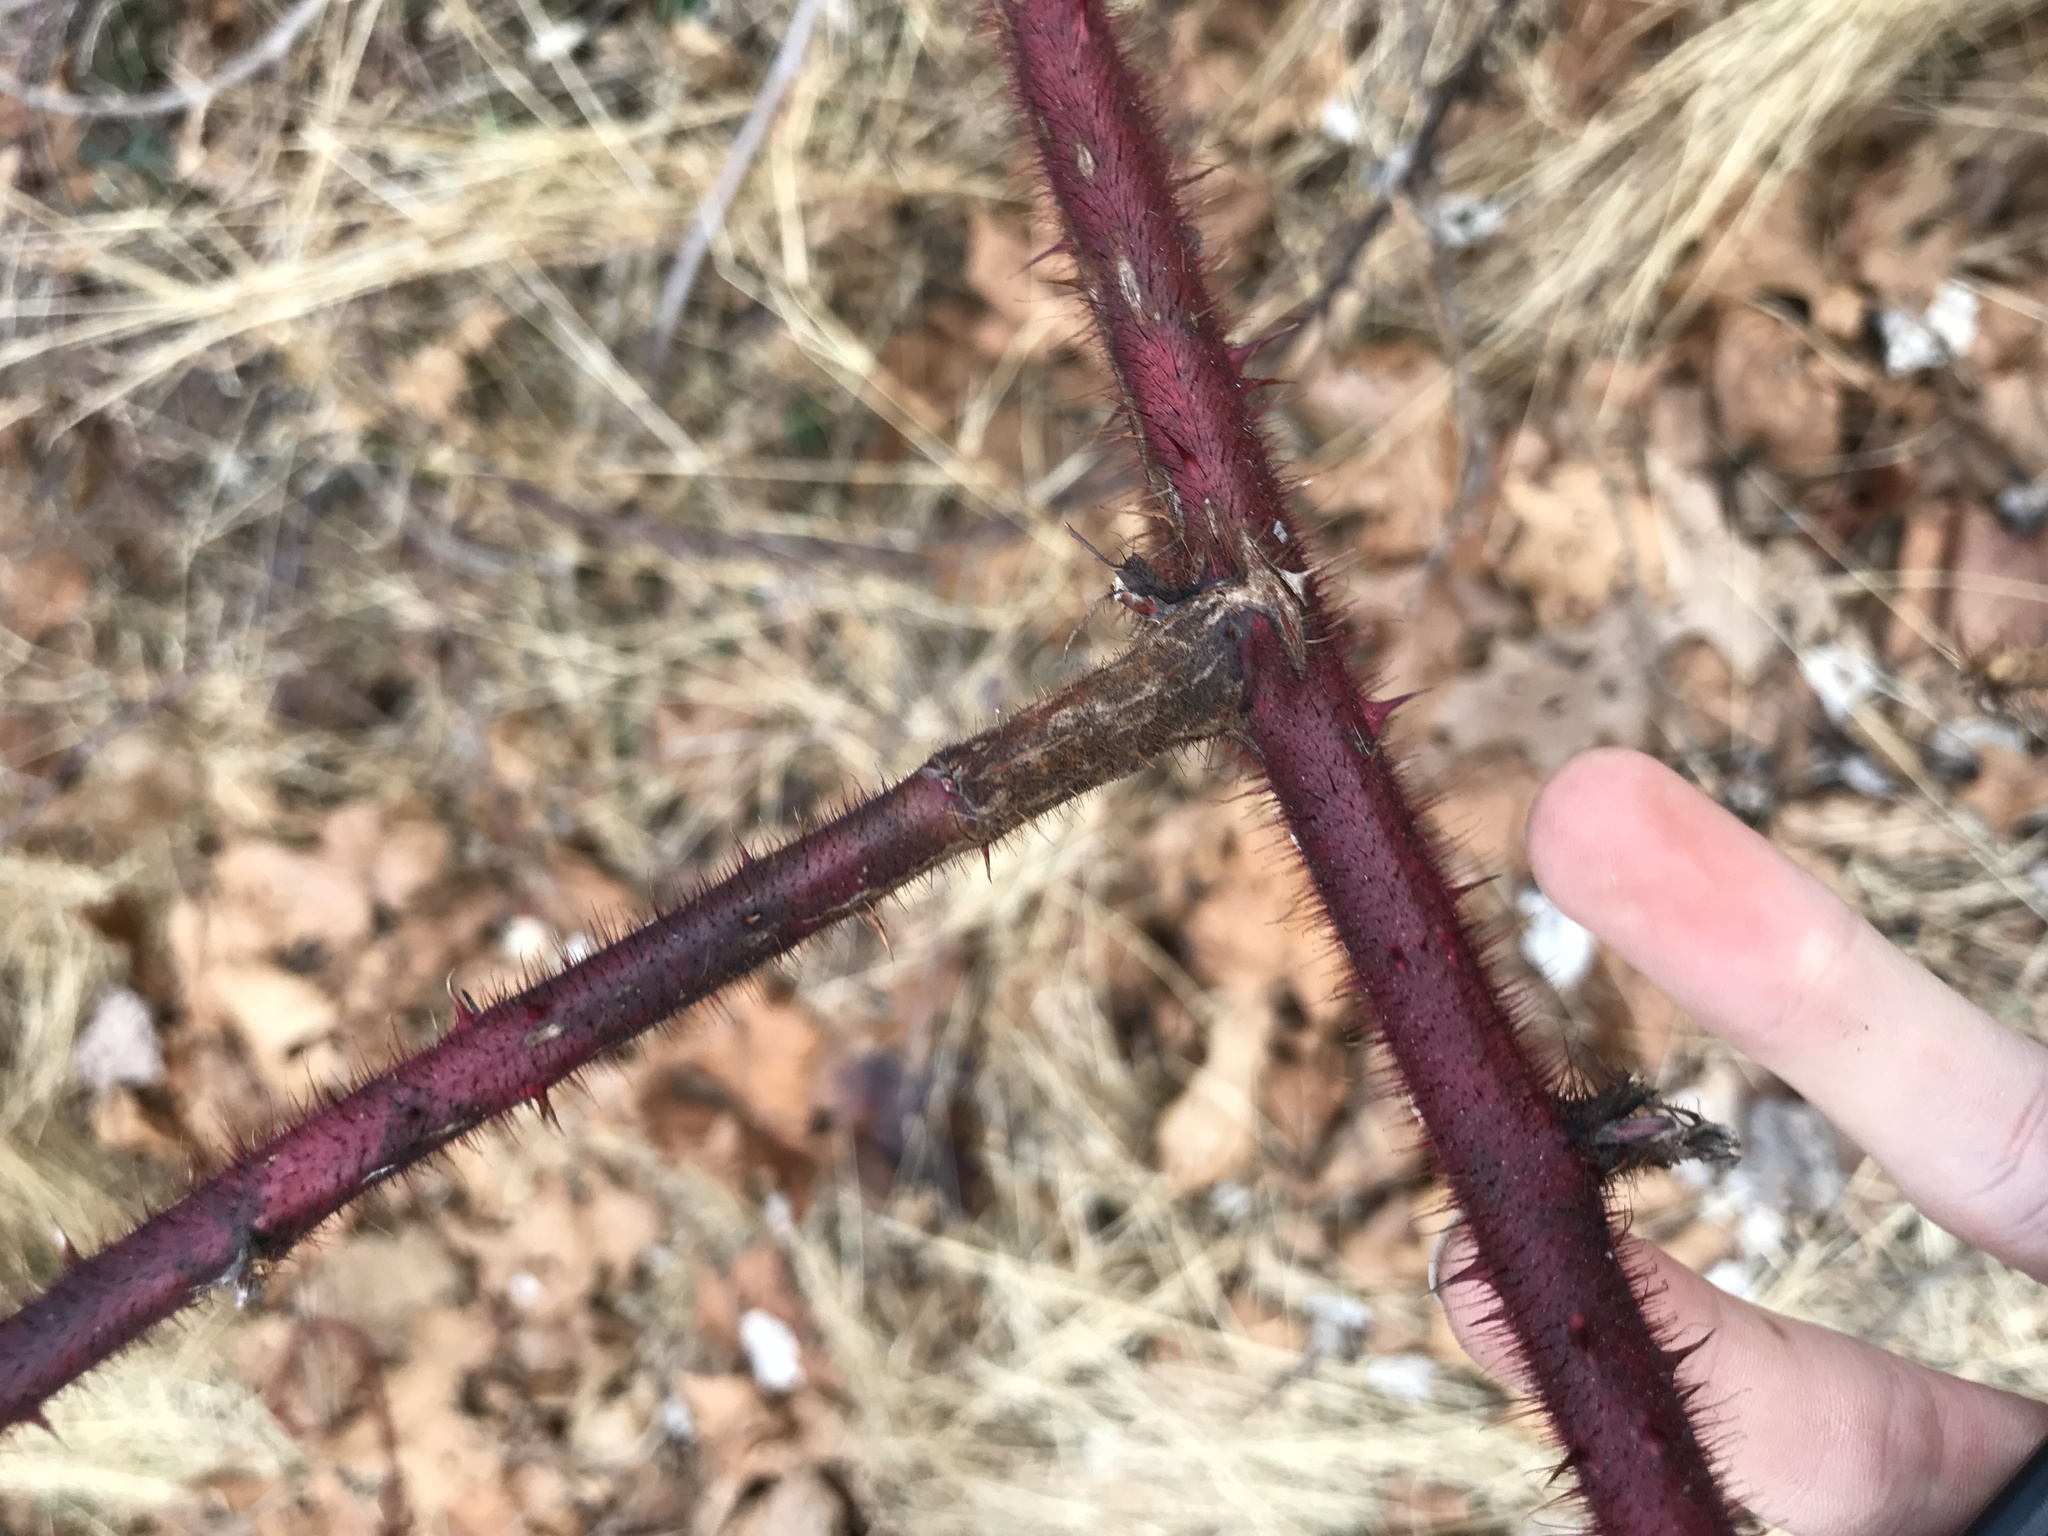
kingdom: Plantae
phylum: Tracheophyta
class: Magnoliopsida
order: Rosales
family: Rosaceae
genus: Rubus
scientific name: Rubus phoenicolasius
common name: Japanese wineberry
